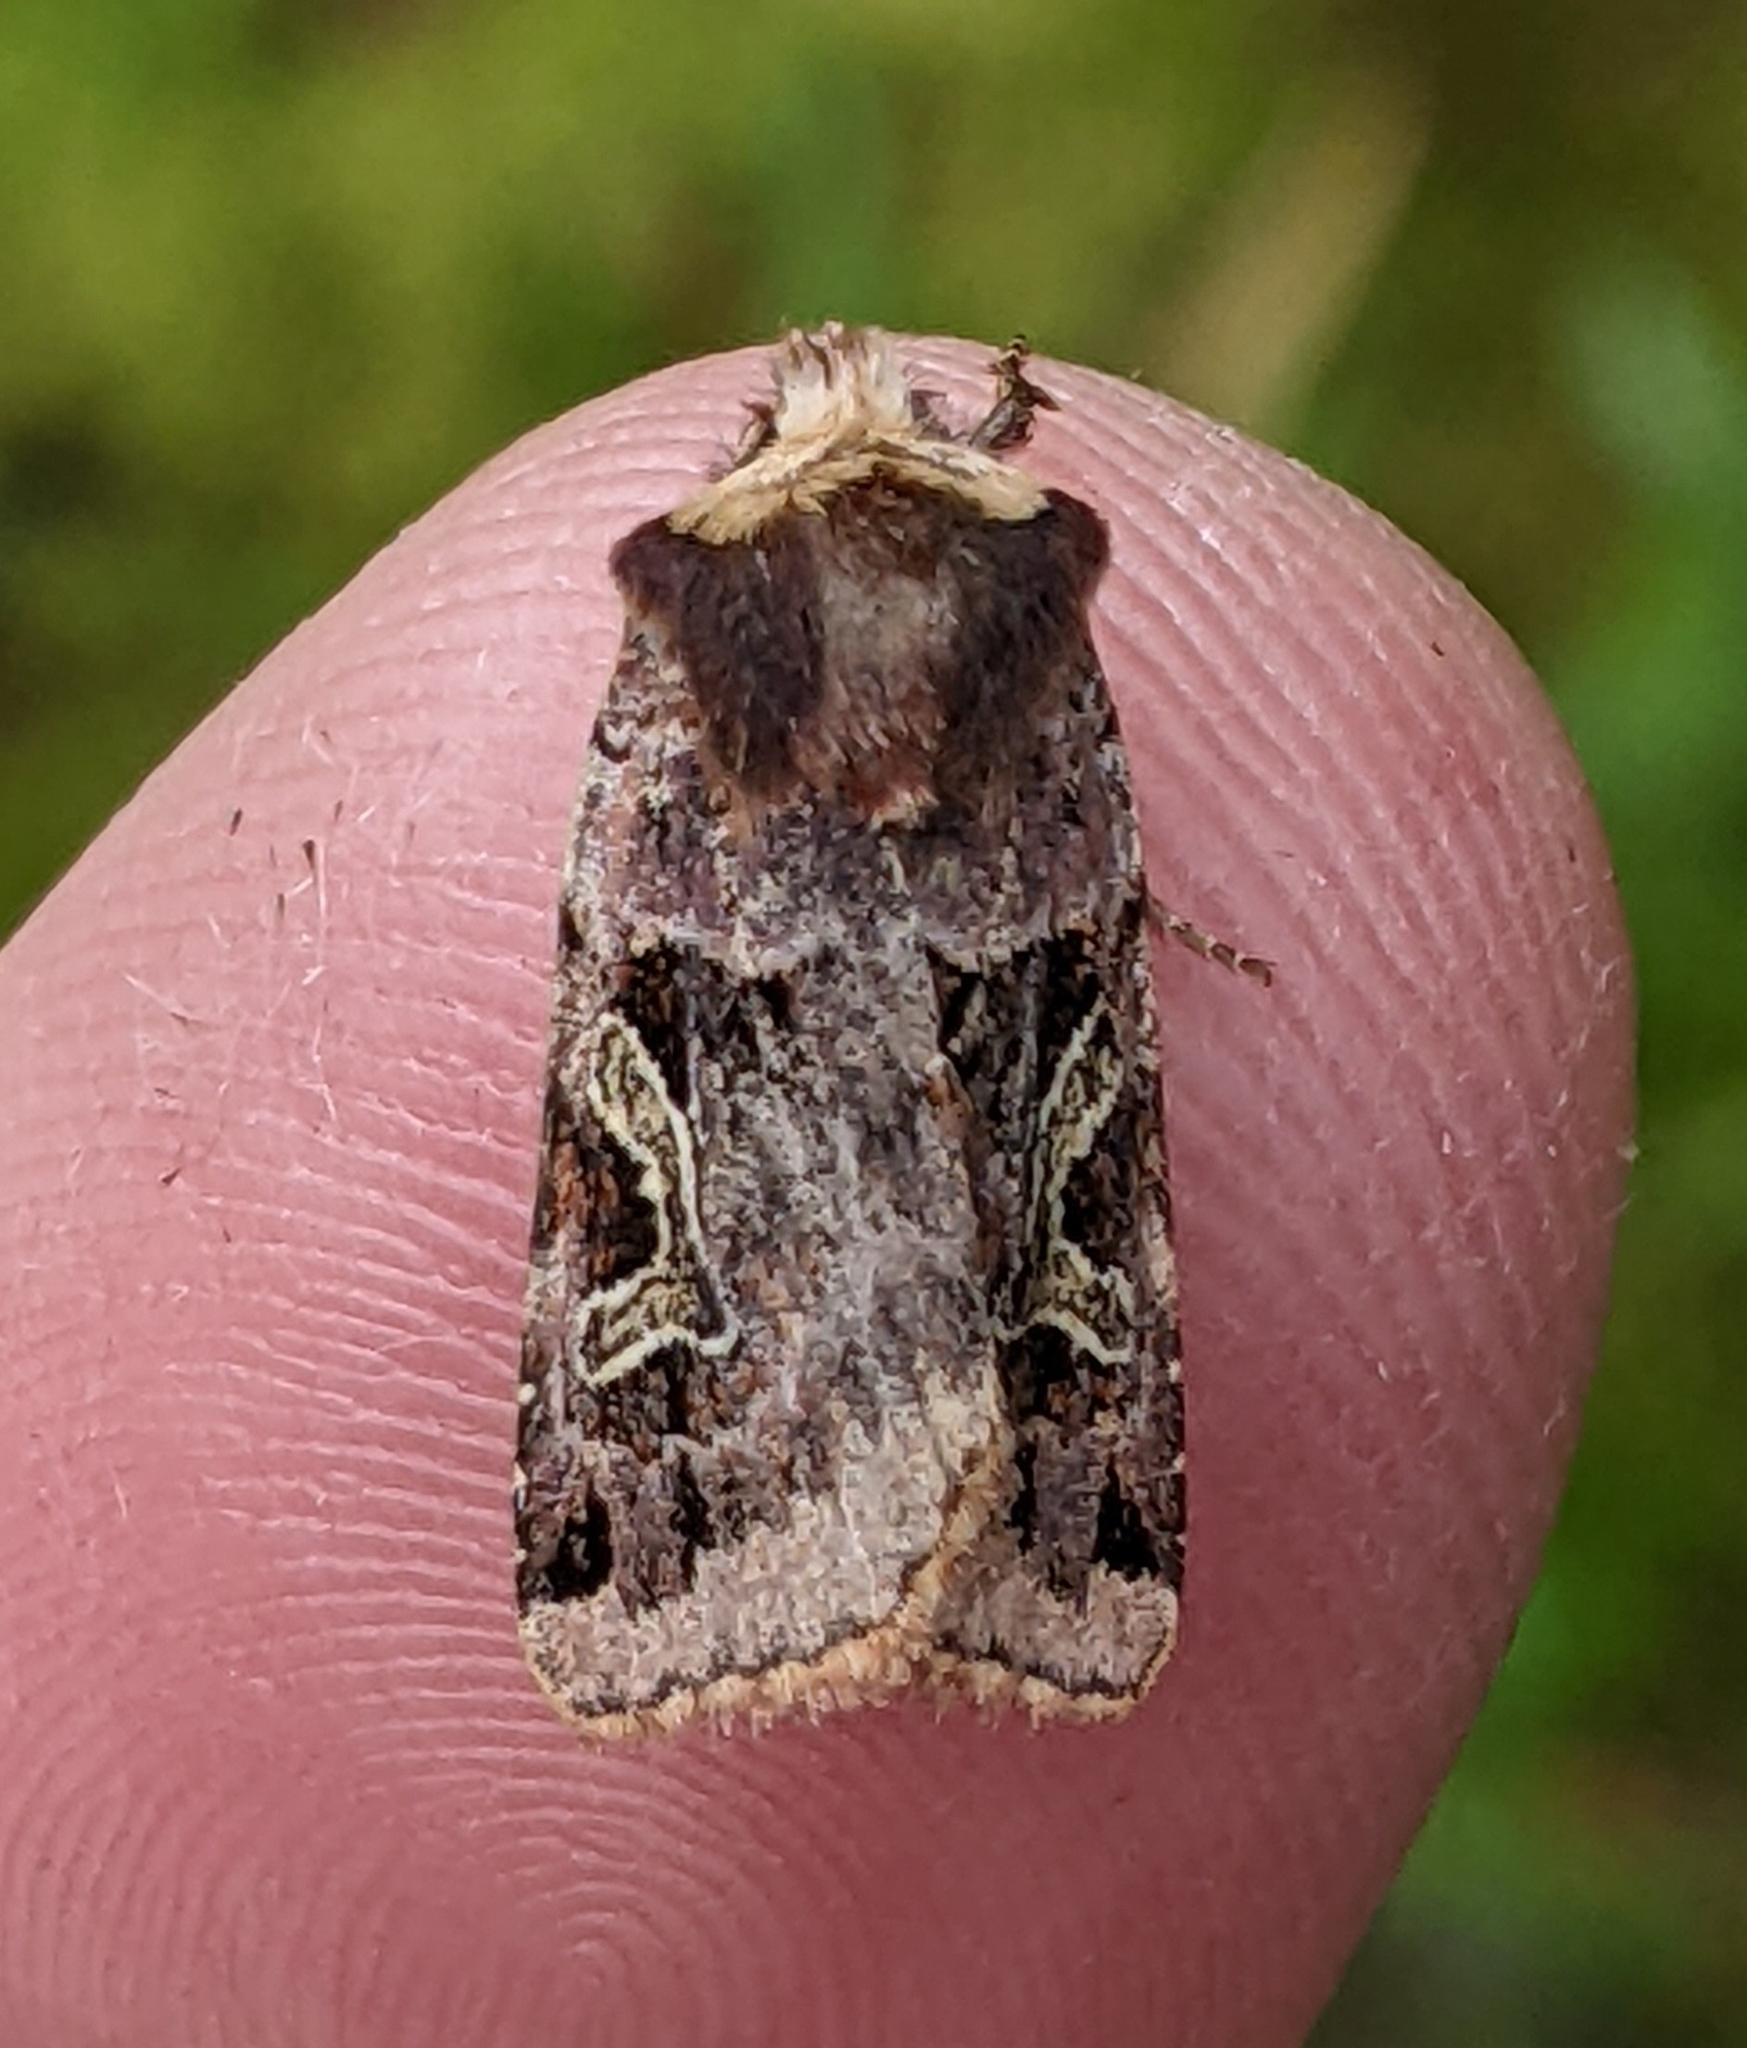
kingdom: Animalia
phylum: Arthropoda
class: Insecta
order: Lepidoptera
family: Noctuidae
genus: Cerastis
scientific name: Cerastis enigmatica
